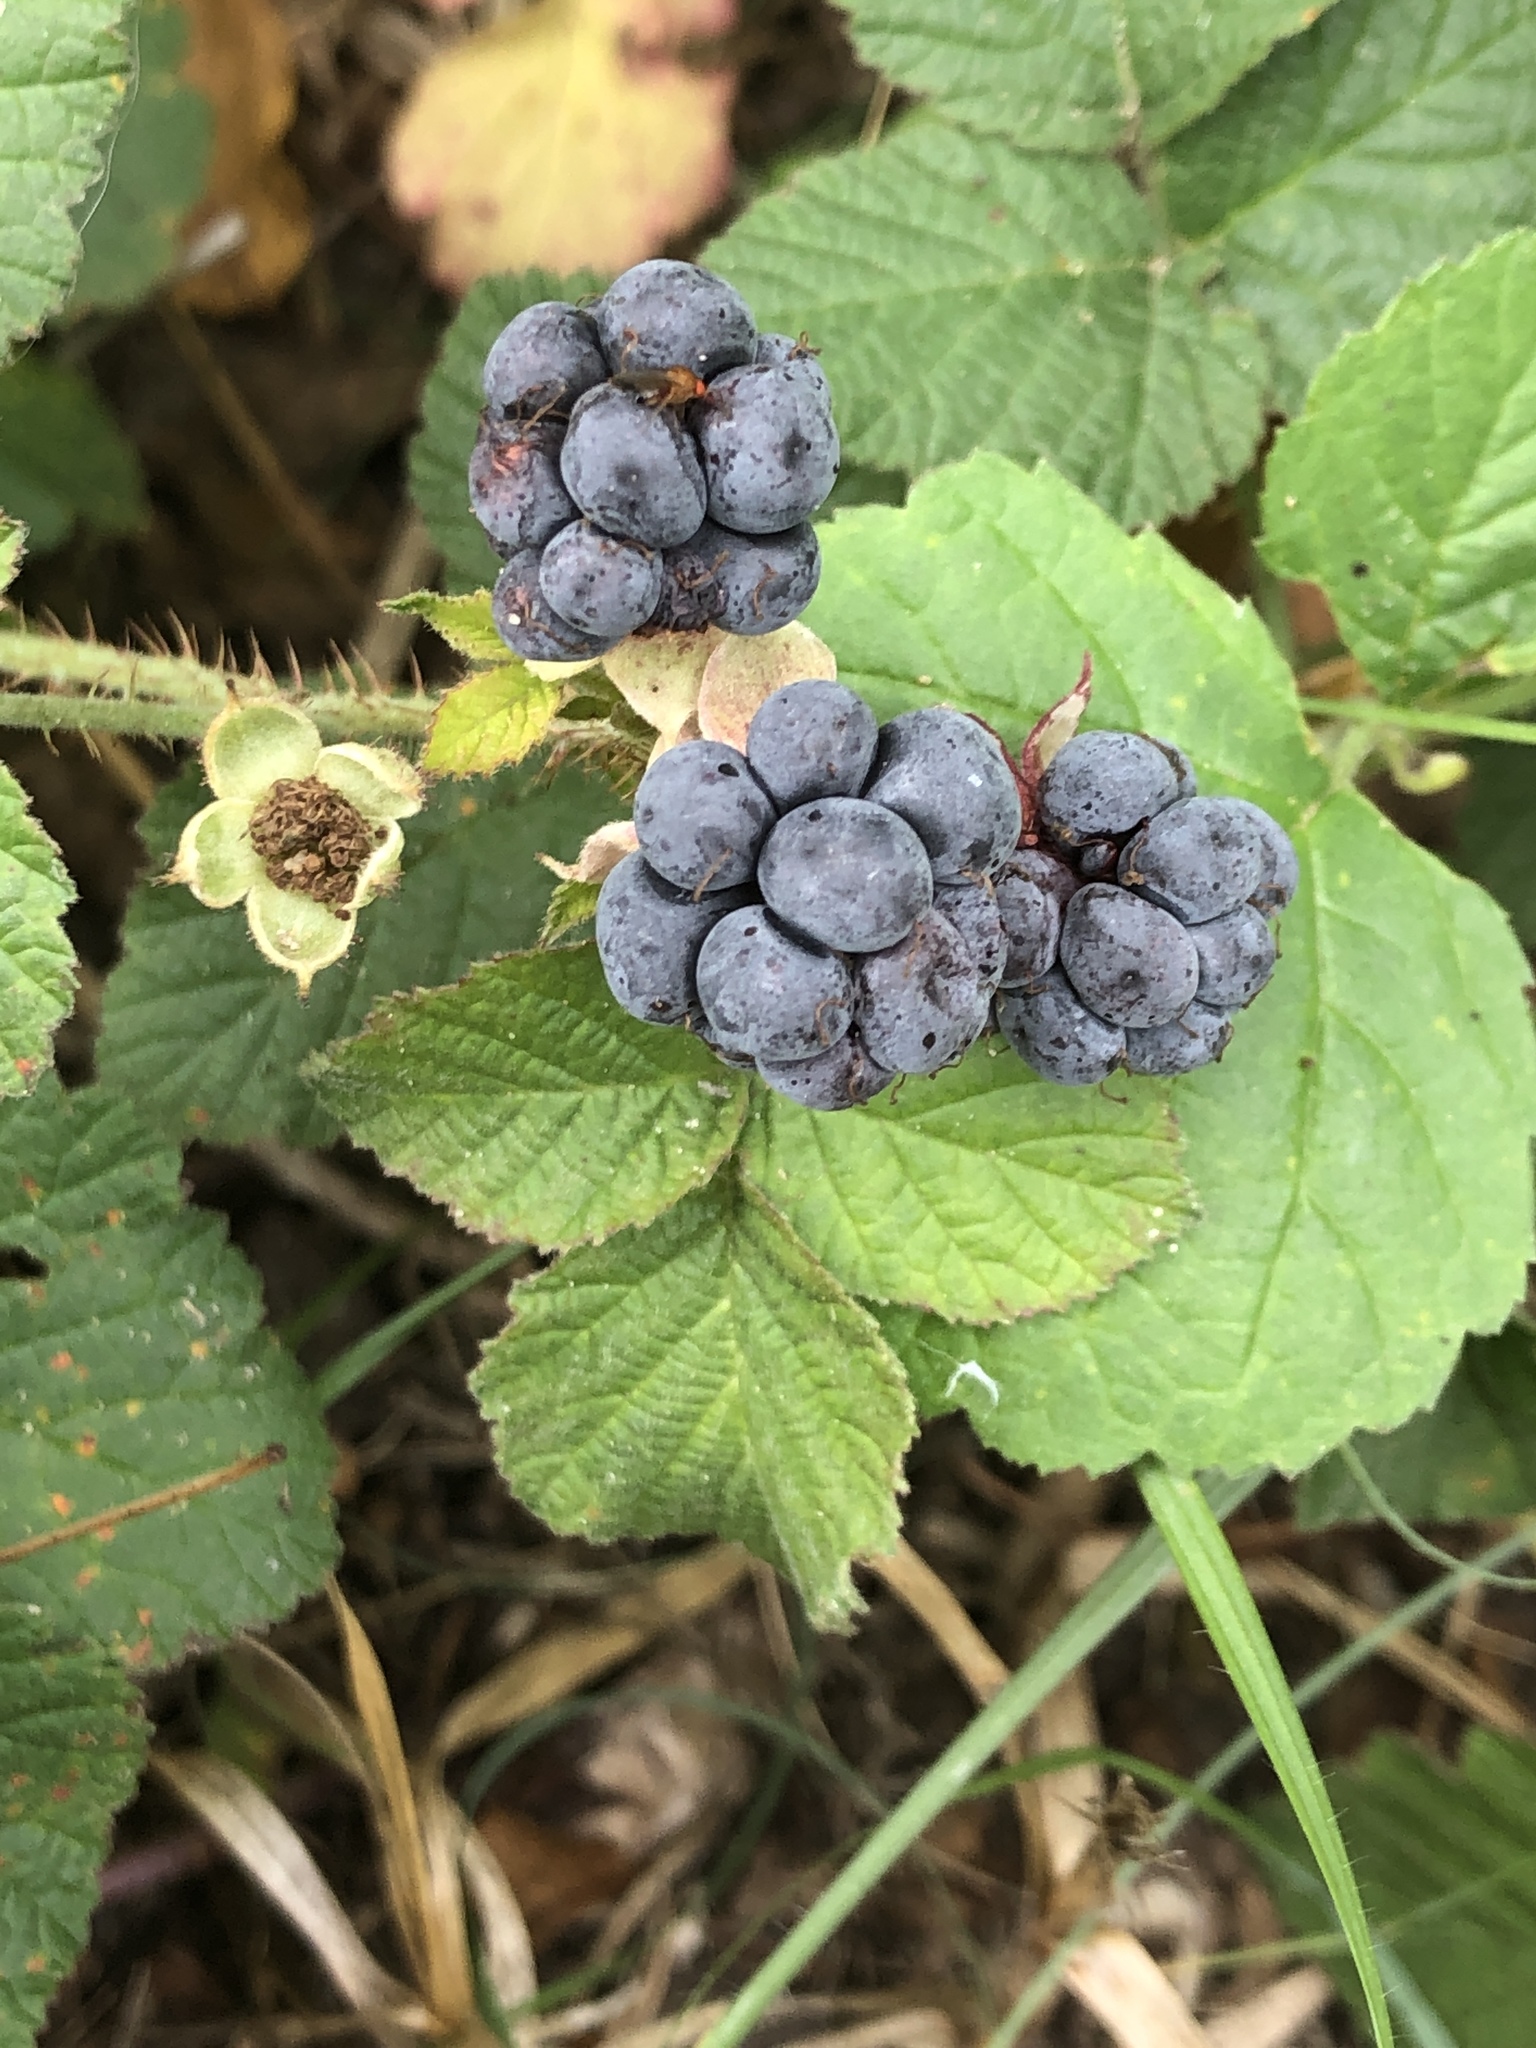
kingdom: Plantae
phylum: Tracheophyta
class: Magnoliopsida
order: Rosales
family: Rosaceae
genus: Rubus
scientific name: Rubus caesius
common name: Dewberry
